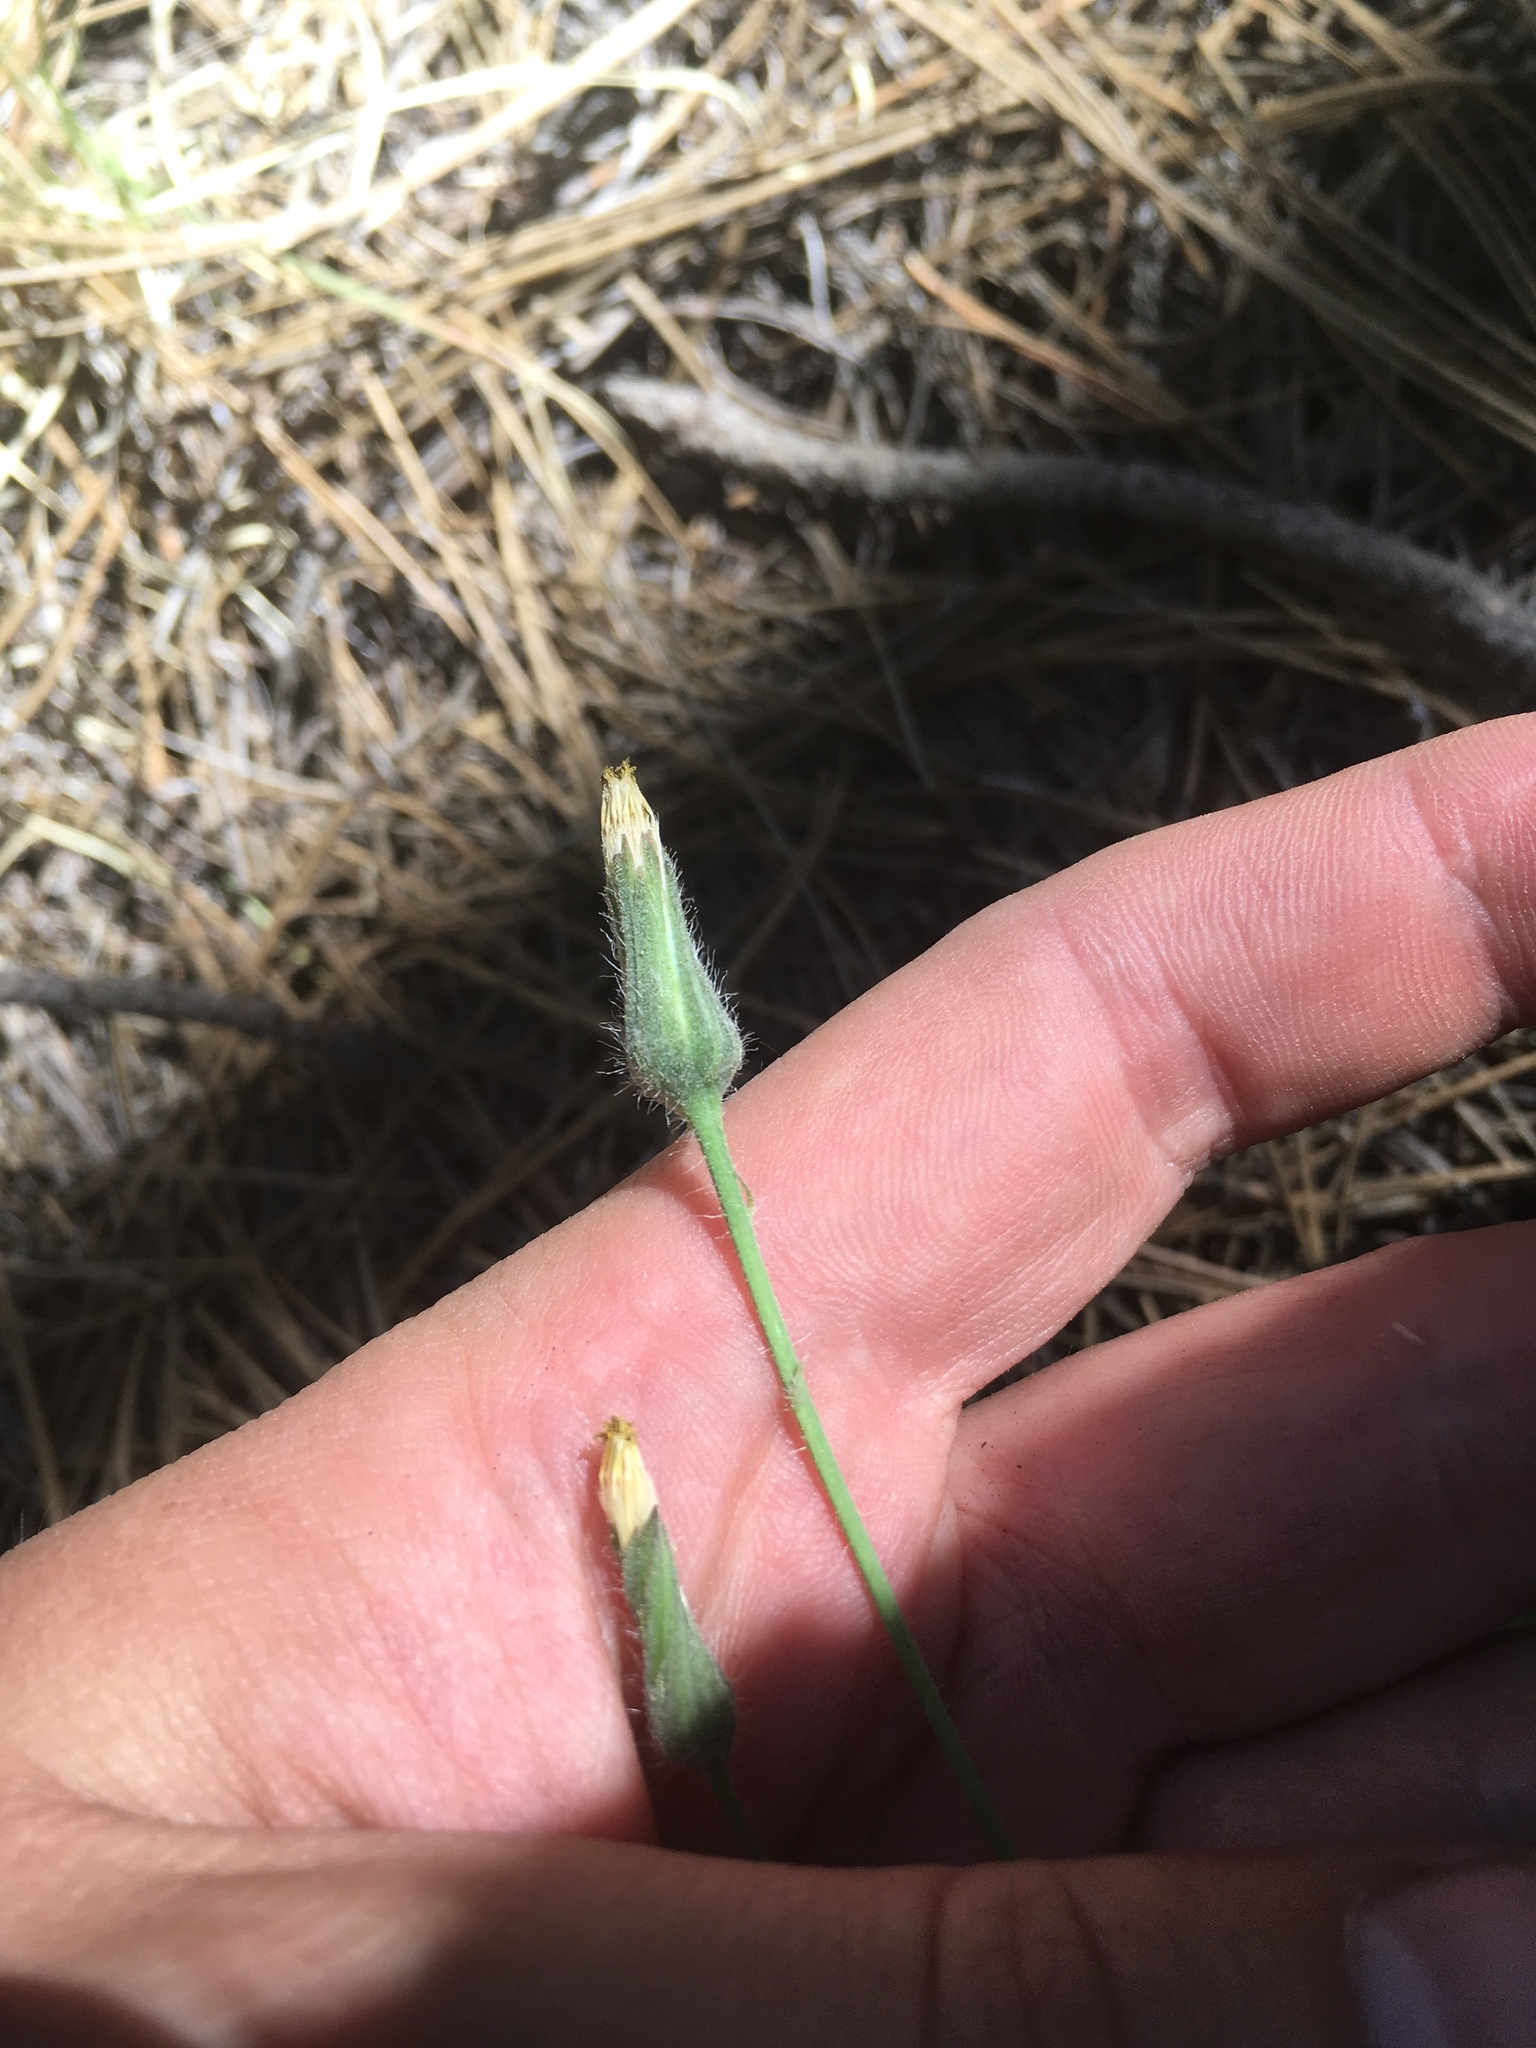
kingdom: Plantae
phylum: Tracheophyta
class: Magnoliopsida
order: Asterales
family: Asteraceae
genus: Hieracium
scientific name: Hieracium fendleri
